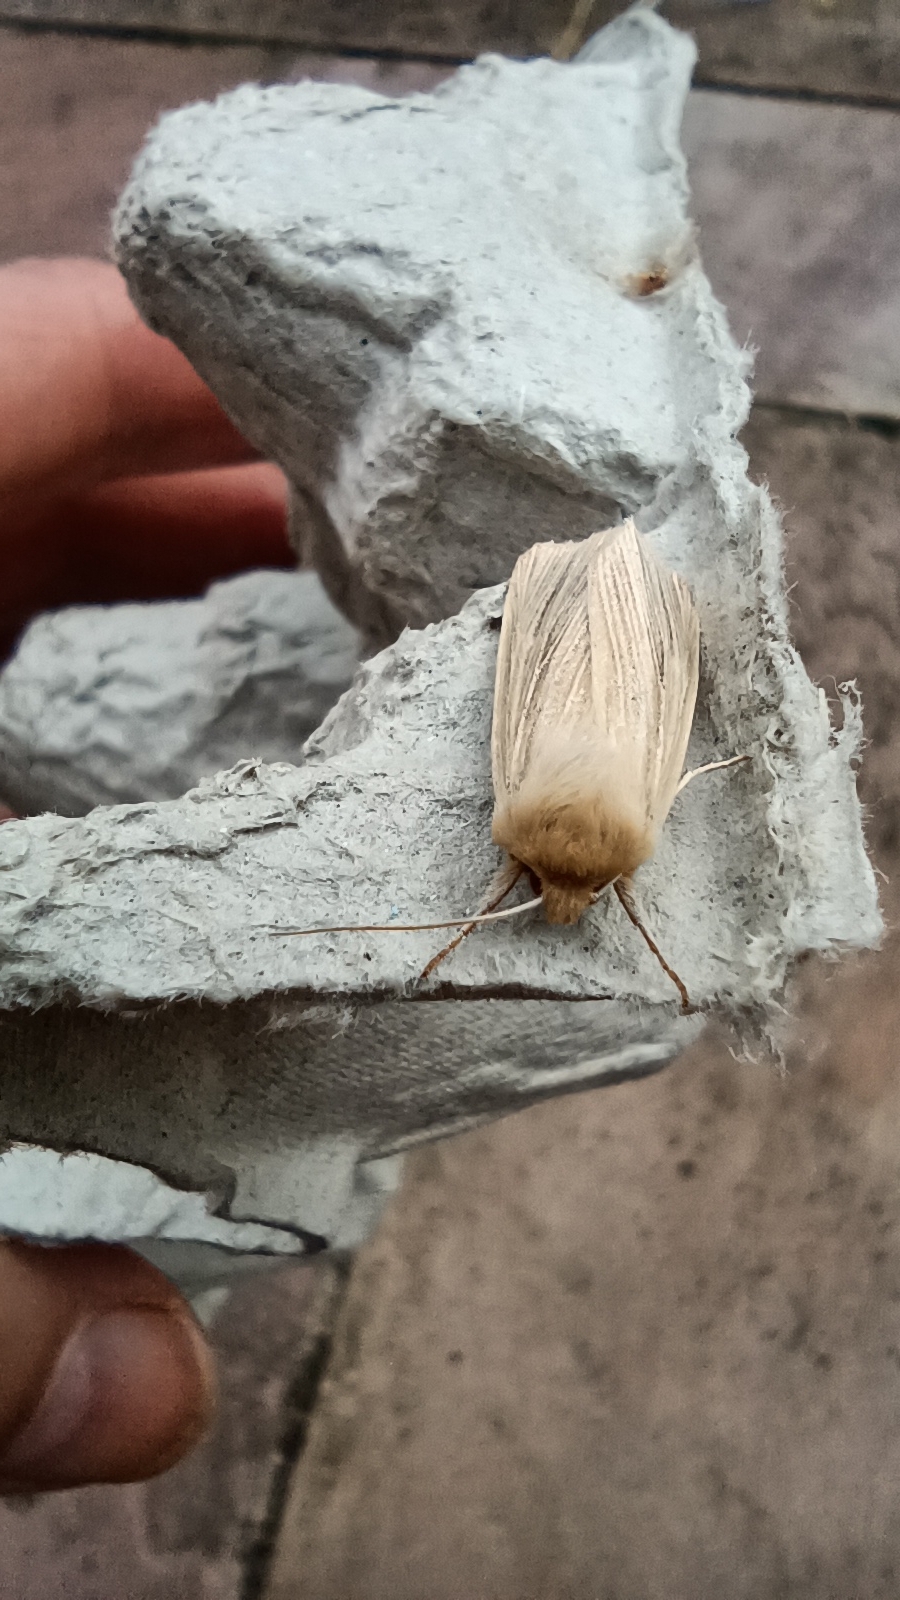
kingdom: Animalia
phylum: Arthropoda
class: Insecta
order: Lepidoptera
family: Noctuidae
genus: Mythimna
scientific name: Mythimna pallens
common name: Common wainscot
